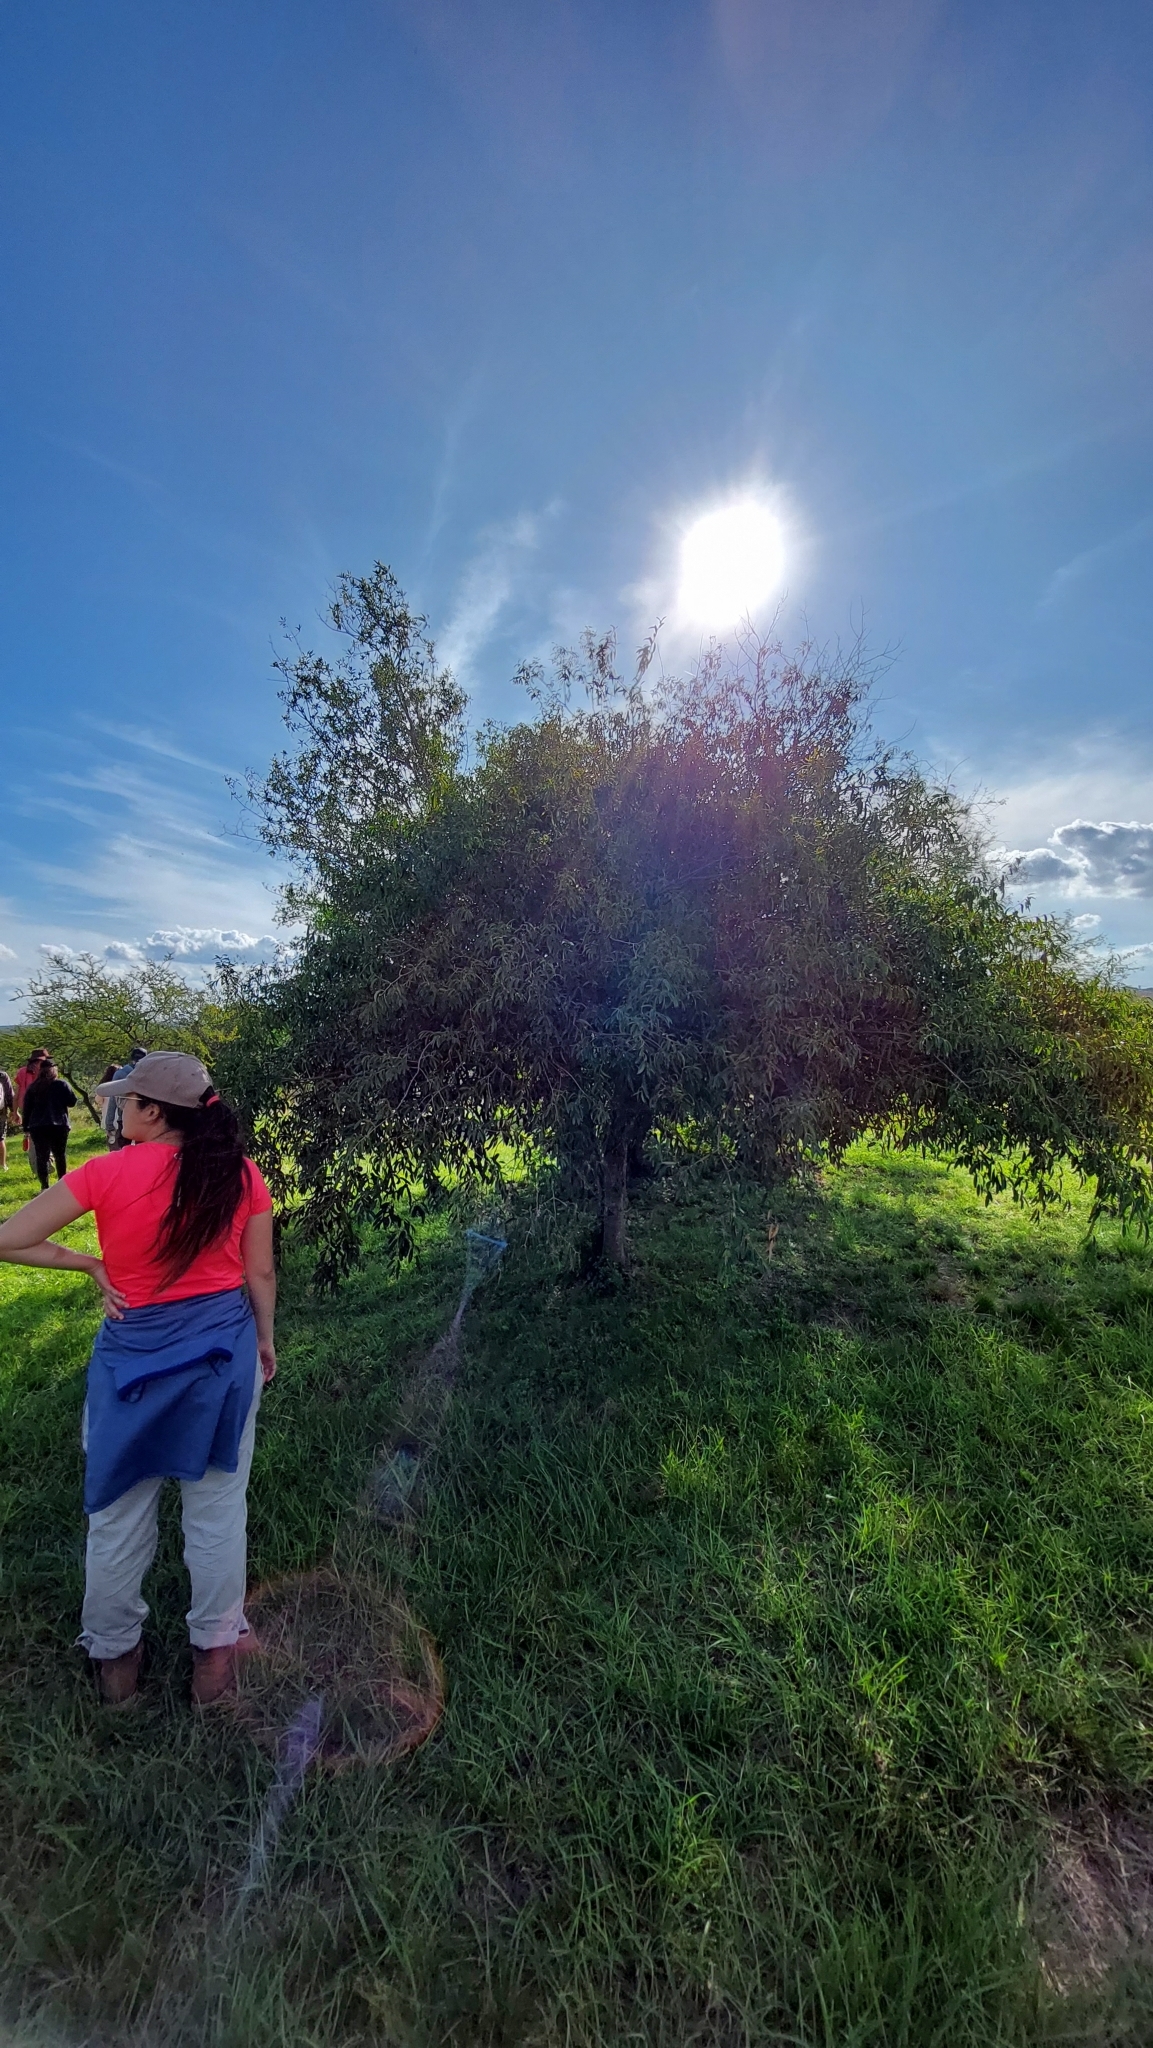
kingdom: Plantae
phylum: Tracheophyta
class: Magnoliopsida
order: Myrtales
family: Myrtaceae
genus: Eugenia
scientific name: Eugenia myrcianthes
